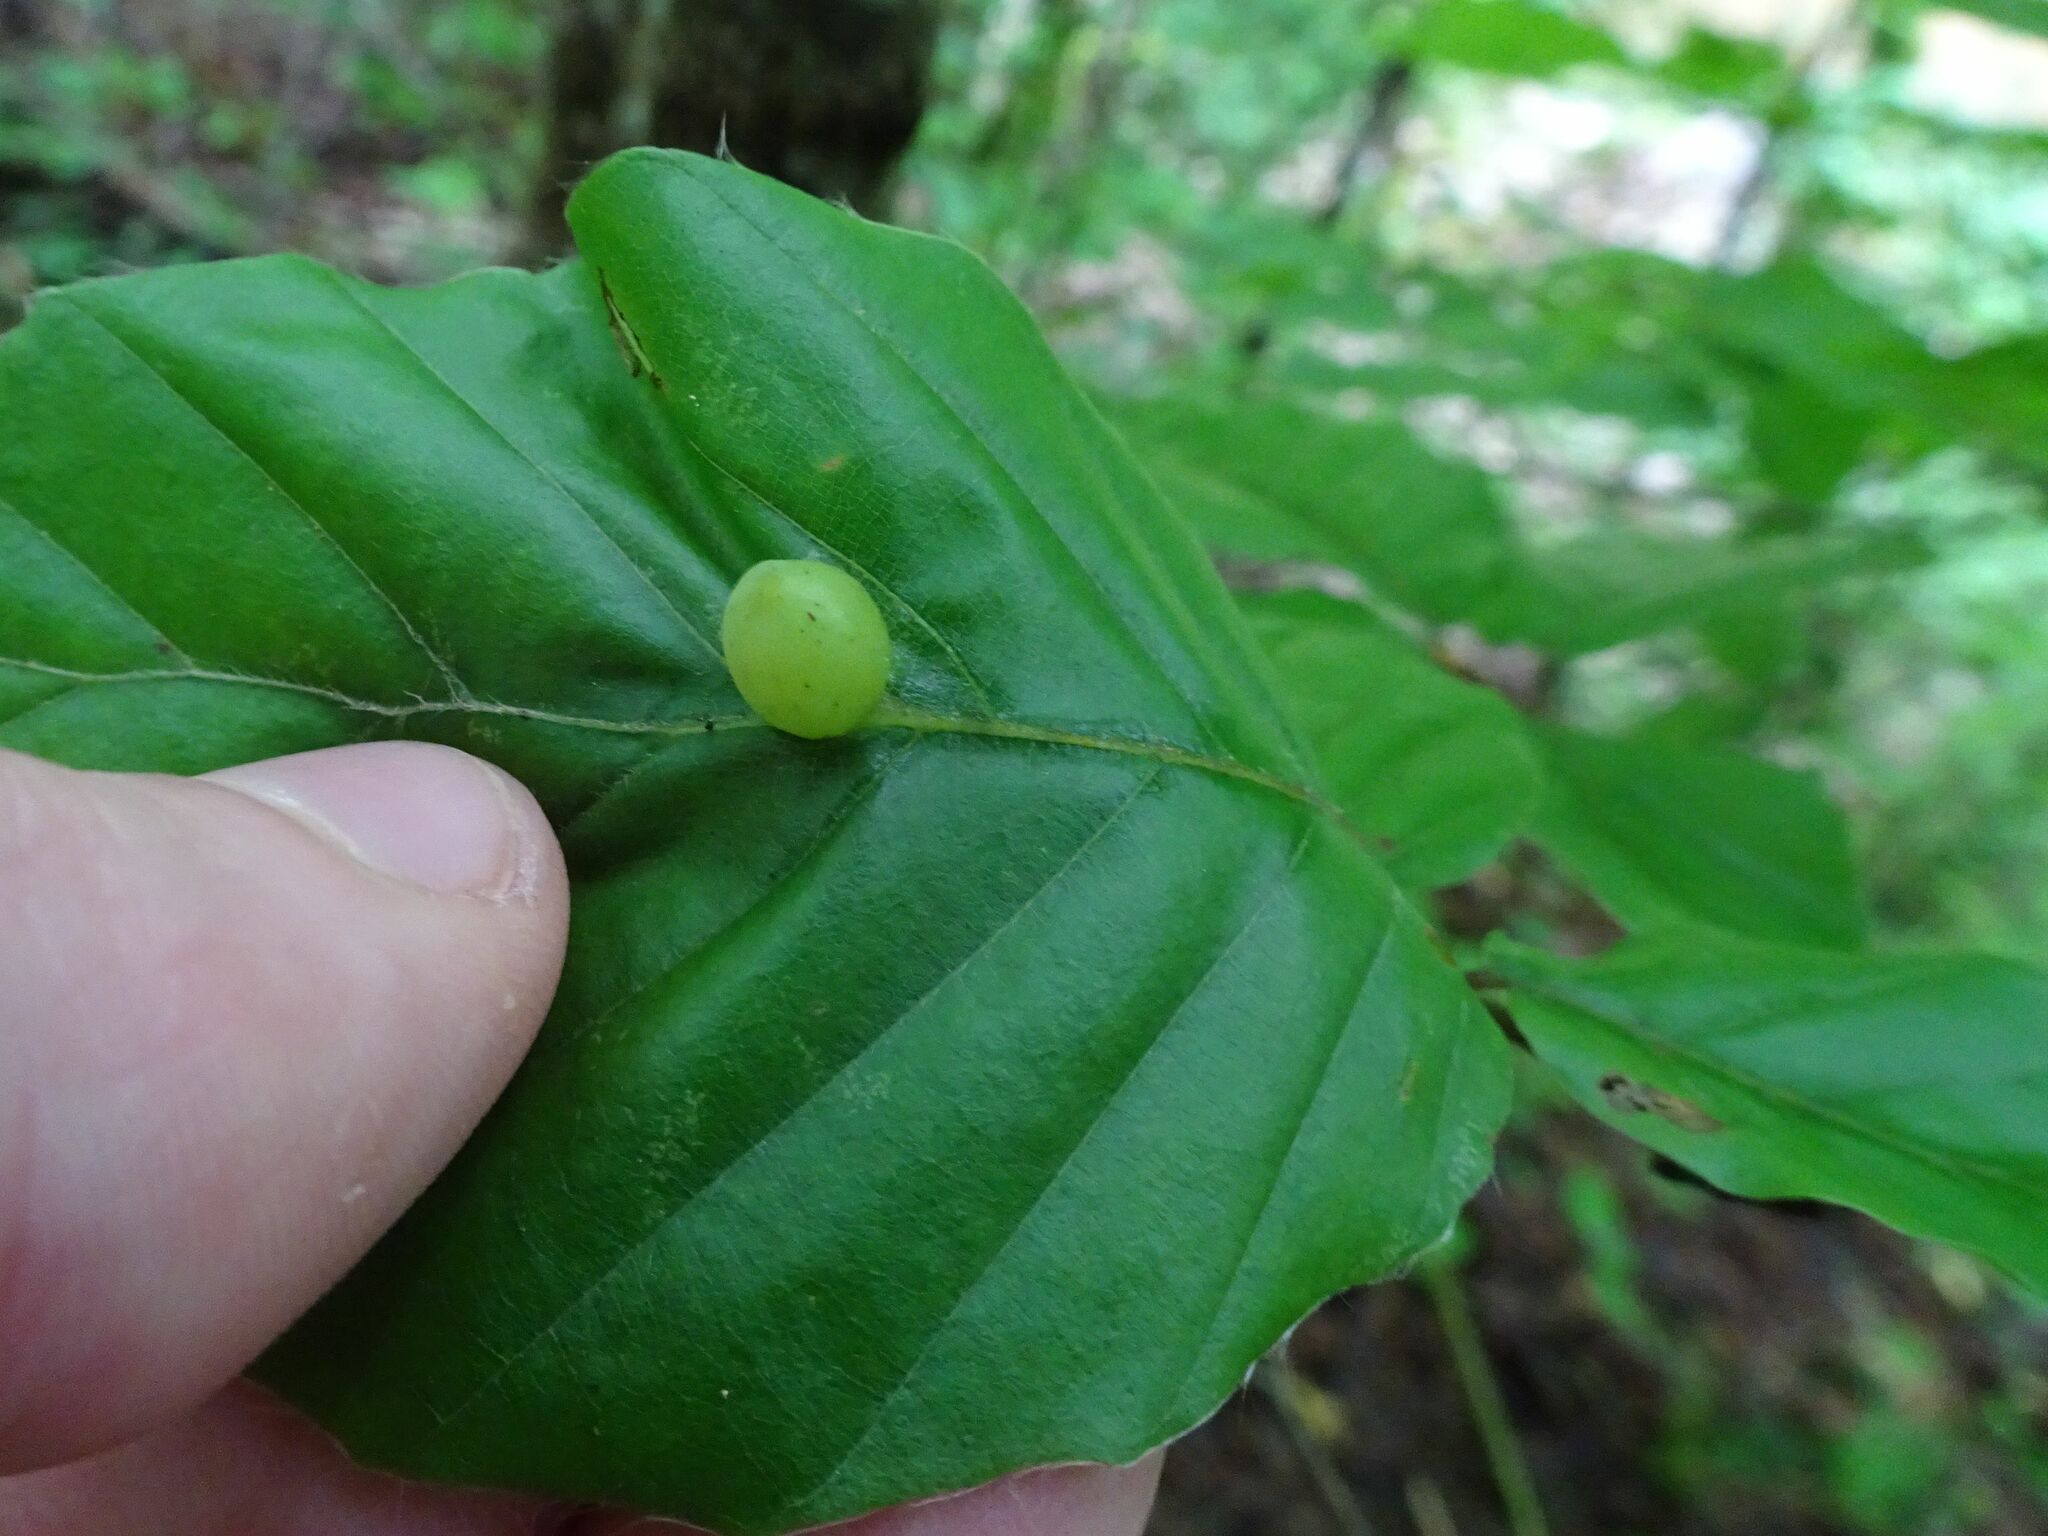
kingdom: Animalia
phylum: Arthropoda
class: Insecta
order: Diptera
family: Cecidomyiidae
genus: Mikiola
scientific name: Mikiola fagi
